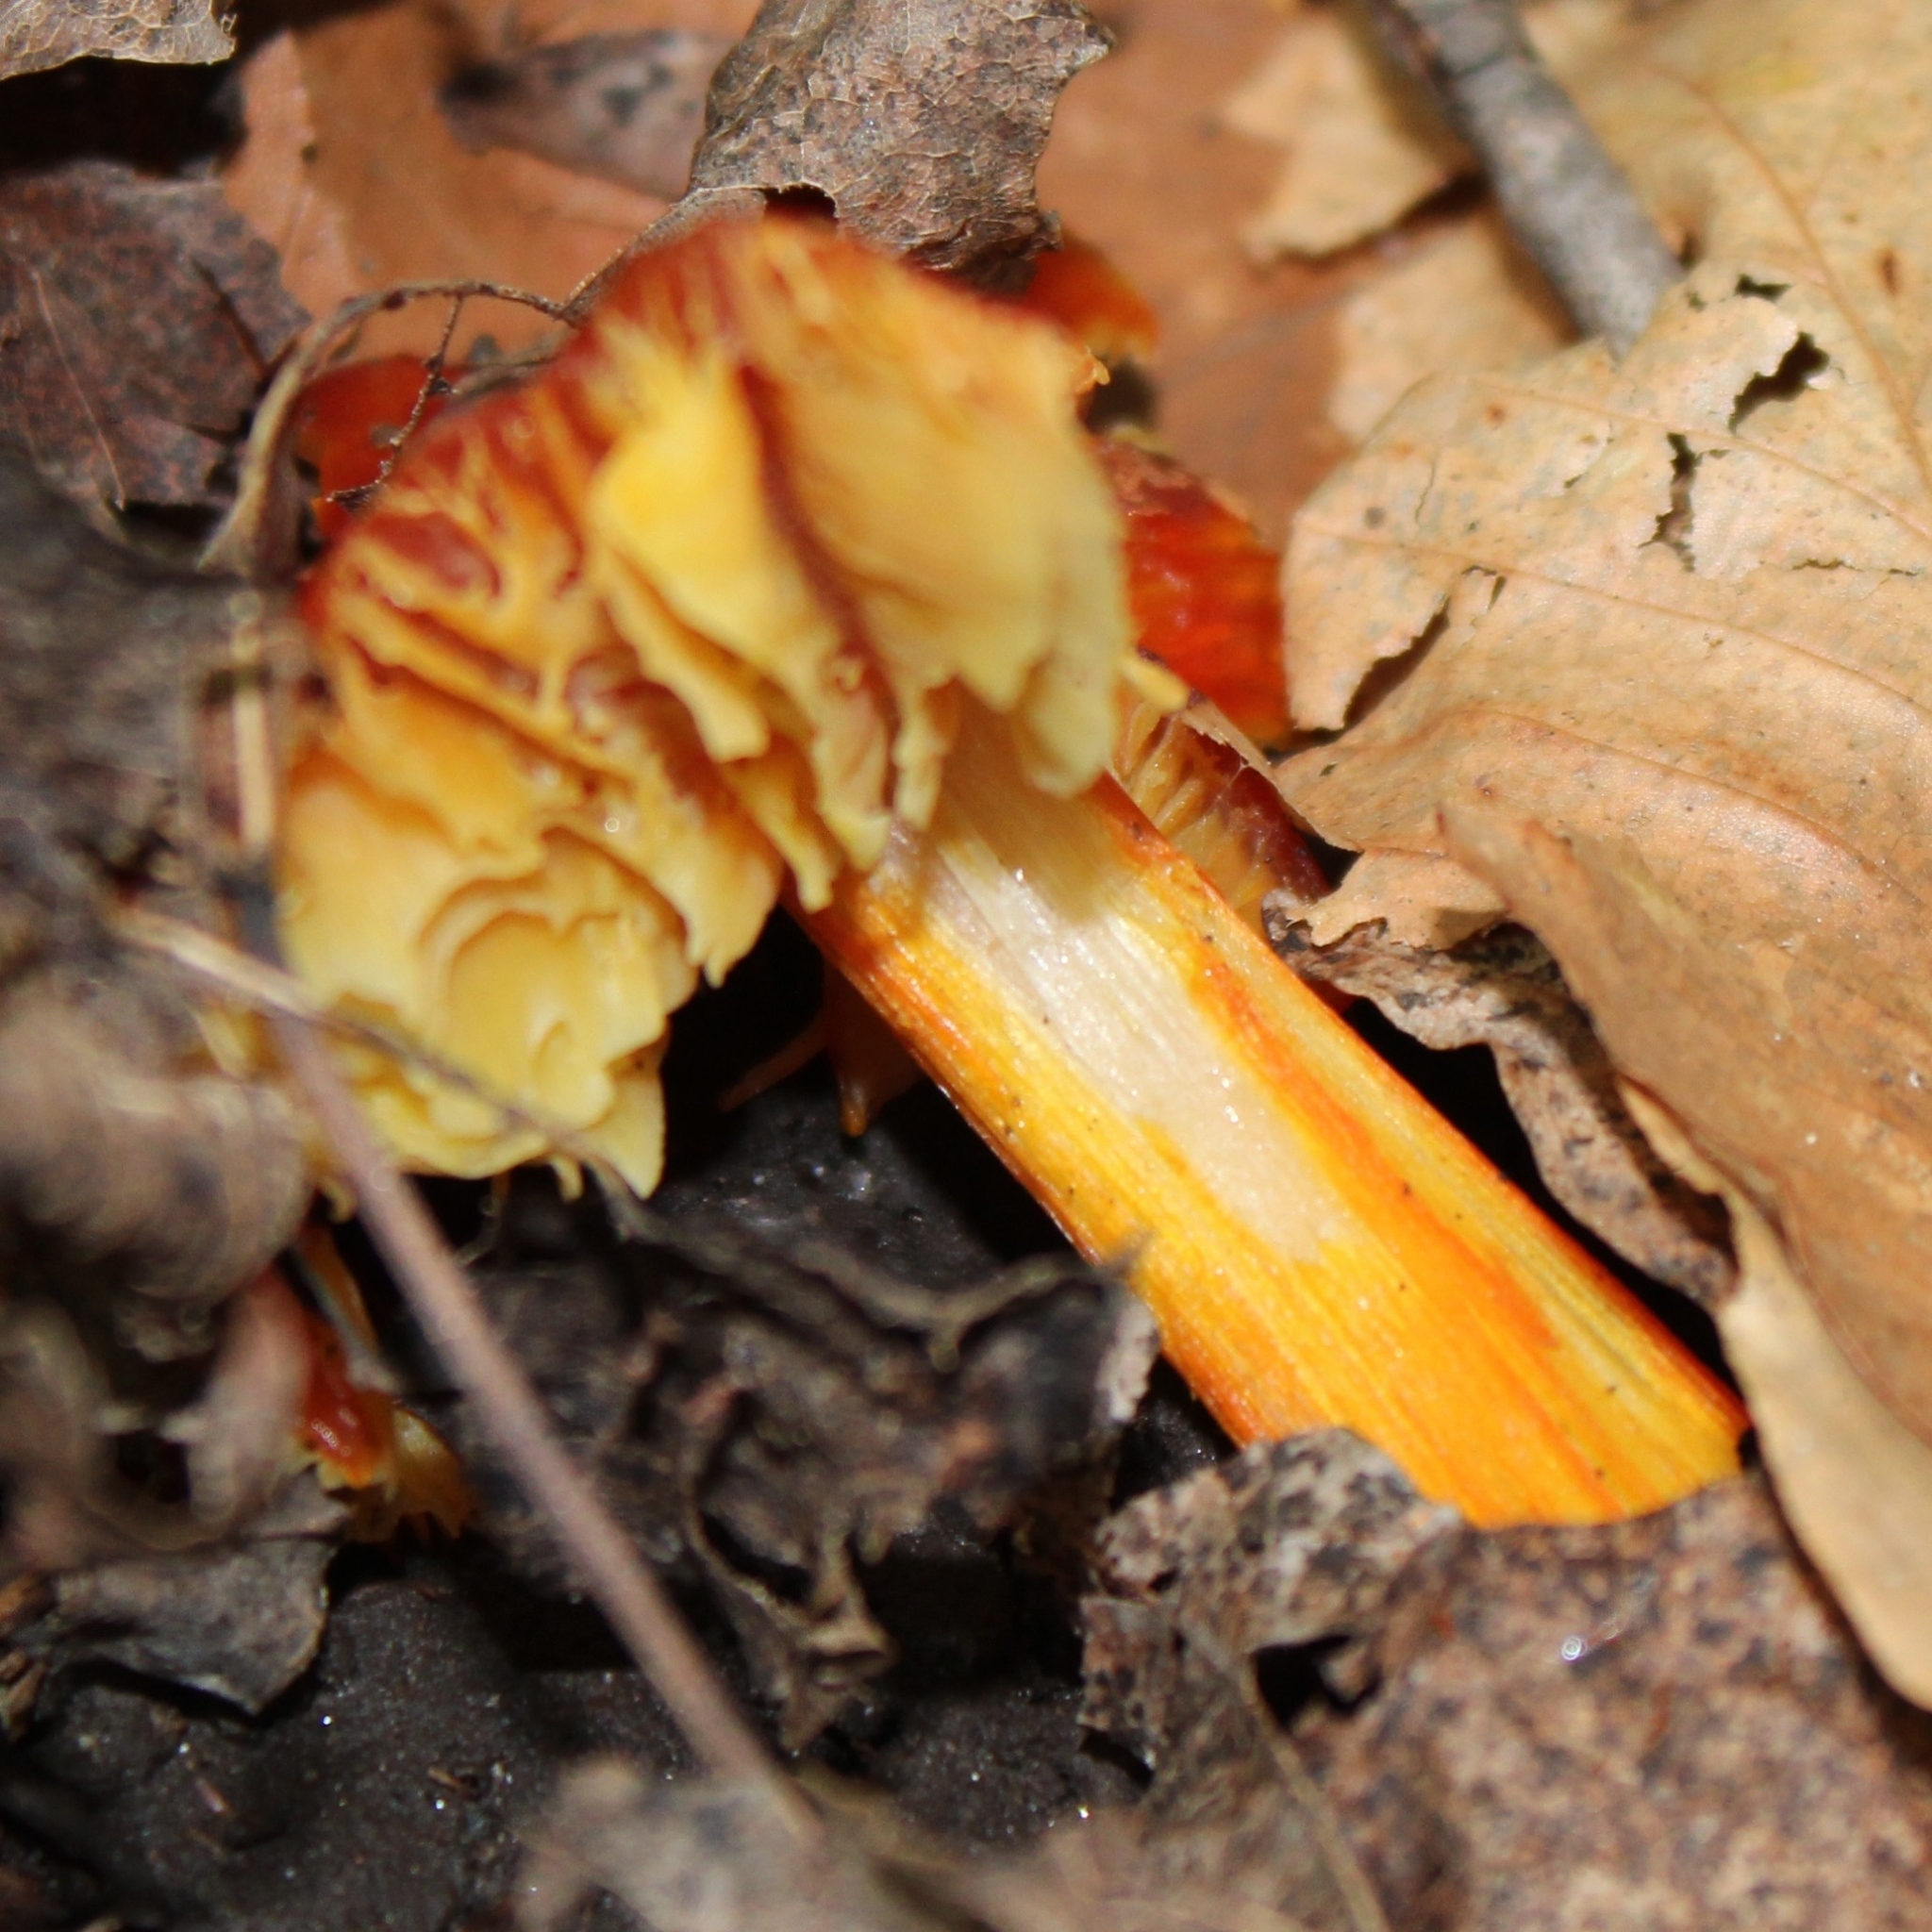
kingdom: Fungi
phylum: Basidiomycota
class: Agaricomycetes
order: Agaricales
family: Hygrophoraceae
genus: Hygrocybe
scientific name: Hygrocybe cuspidata
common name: Candy apple waxy cap
